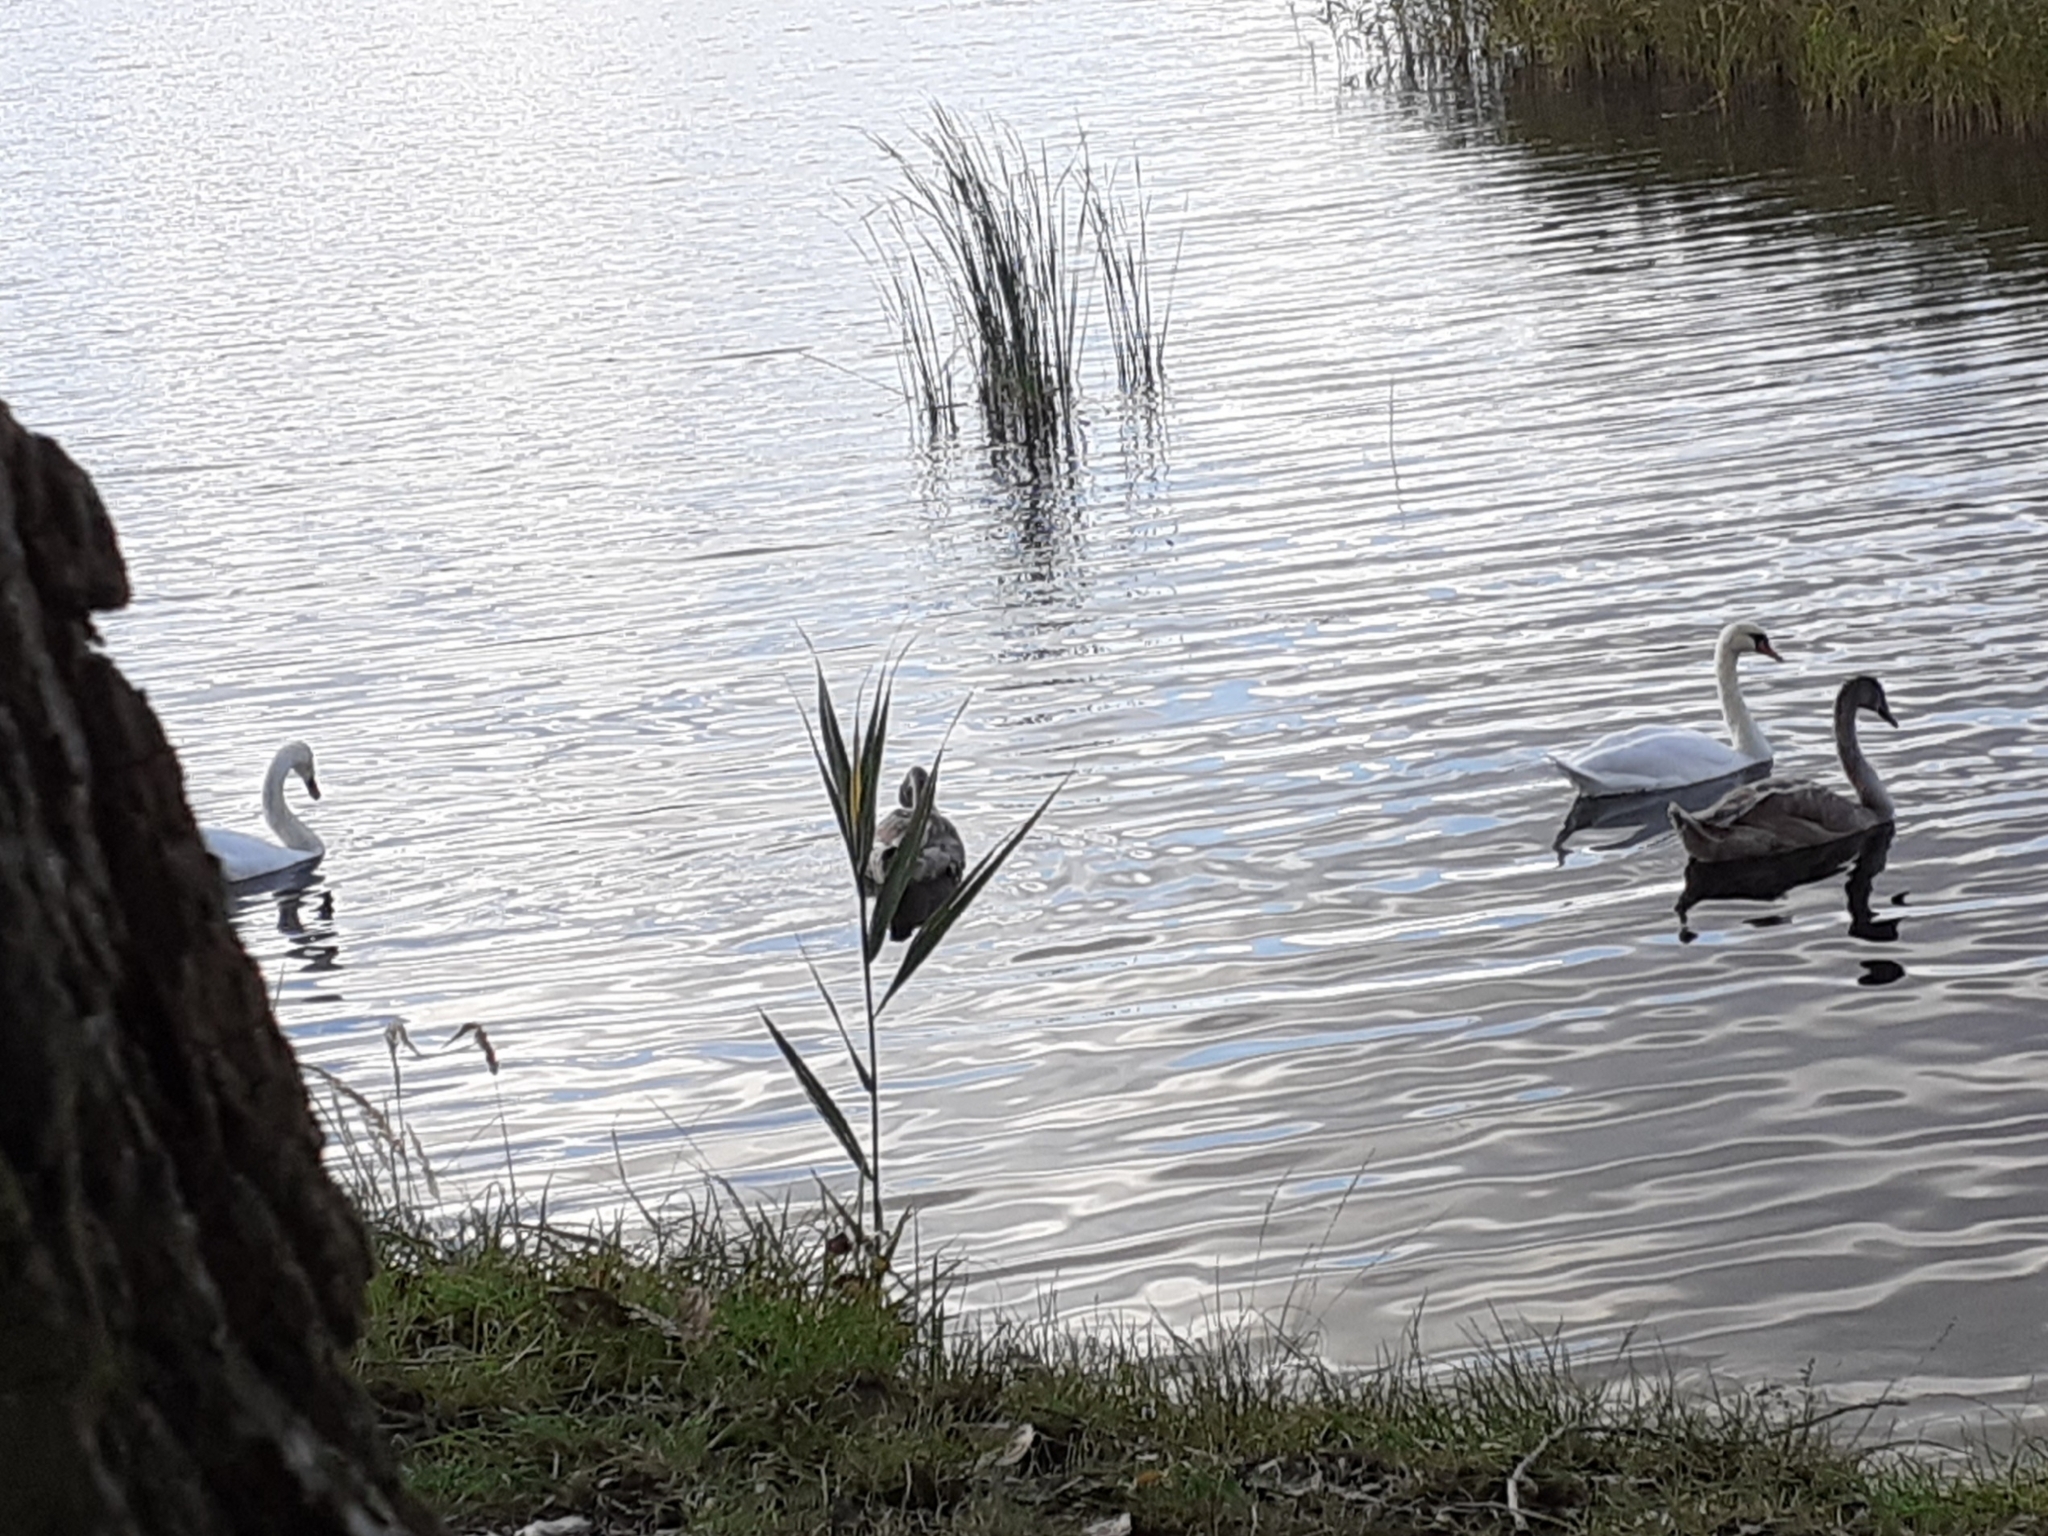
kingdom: Animalia
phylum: Chordata
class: Aves
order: Anseriformes
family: Anatidae
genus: Cygnus
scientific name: Cygnus olor
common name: Mute swan
